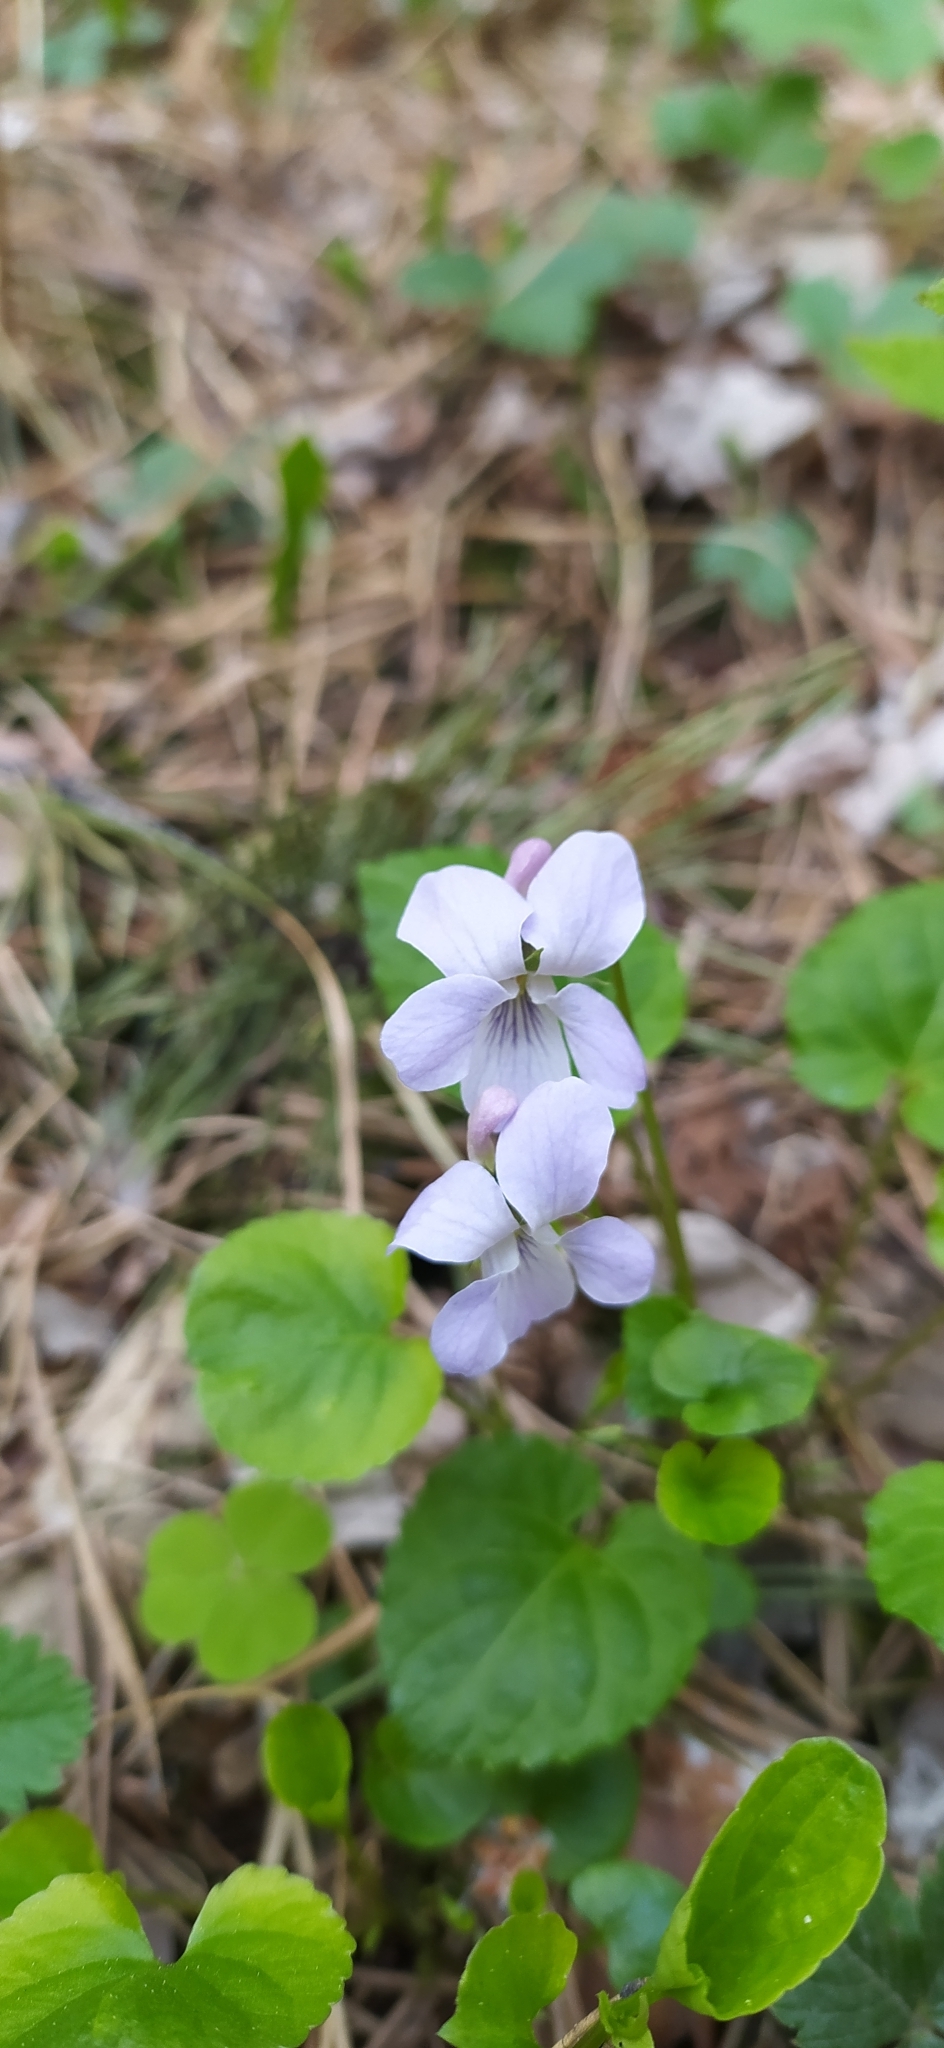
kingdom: Plantae
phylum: Tracheophyta
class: Magnoliopsida
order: Malpighiales
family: Violaceae
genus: Viola
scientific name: Viola selkirkii
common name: Selkirk's violet
